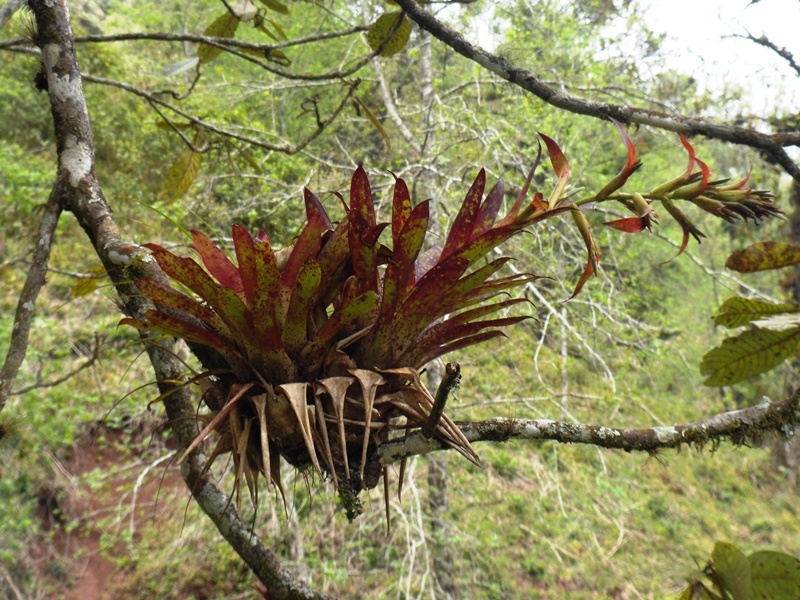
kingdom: Plantae
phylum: Tracheophyta
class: Liliopsida
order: Poales
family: Bromeliaceae
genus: Tillandsia
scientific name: Tillandsia leiboldiana
